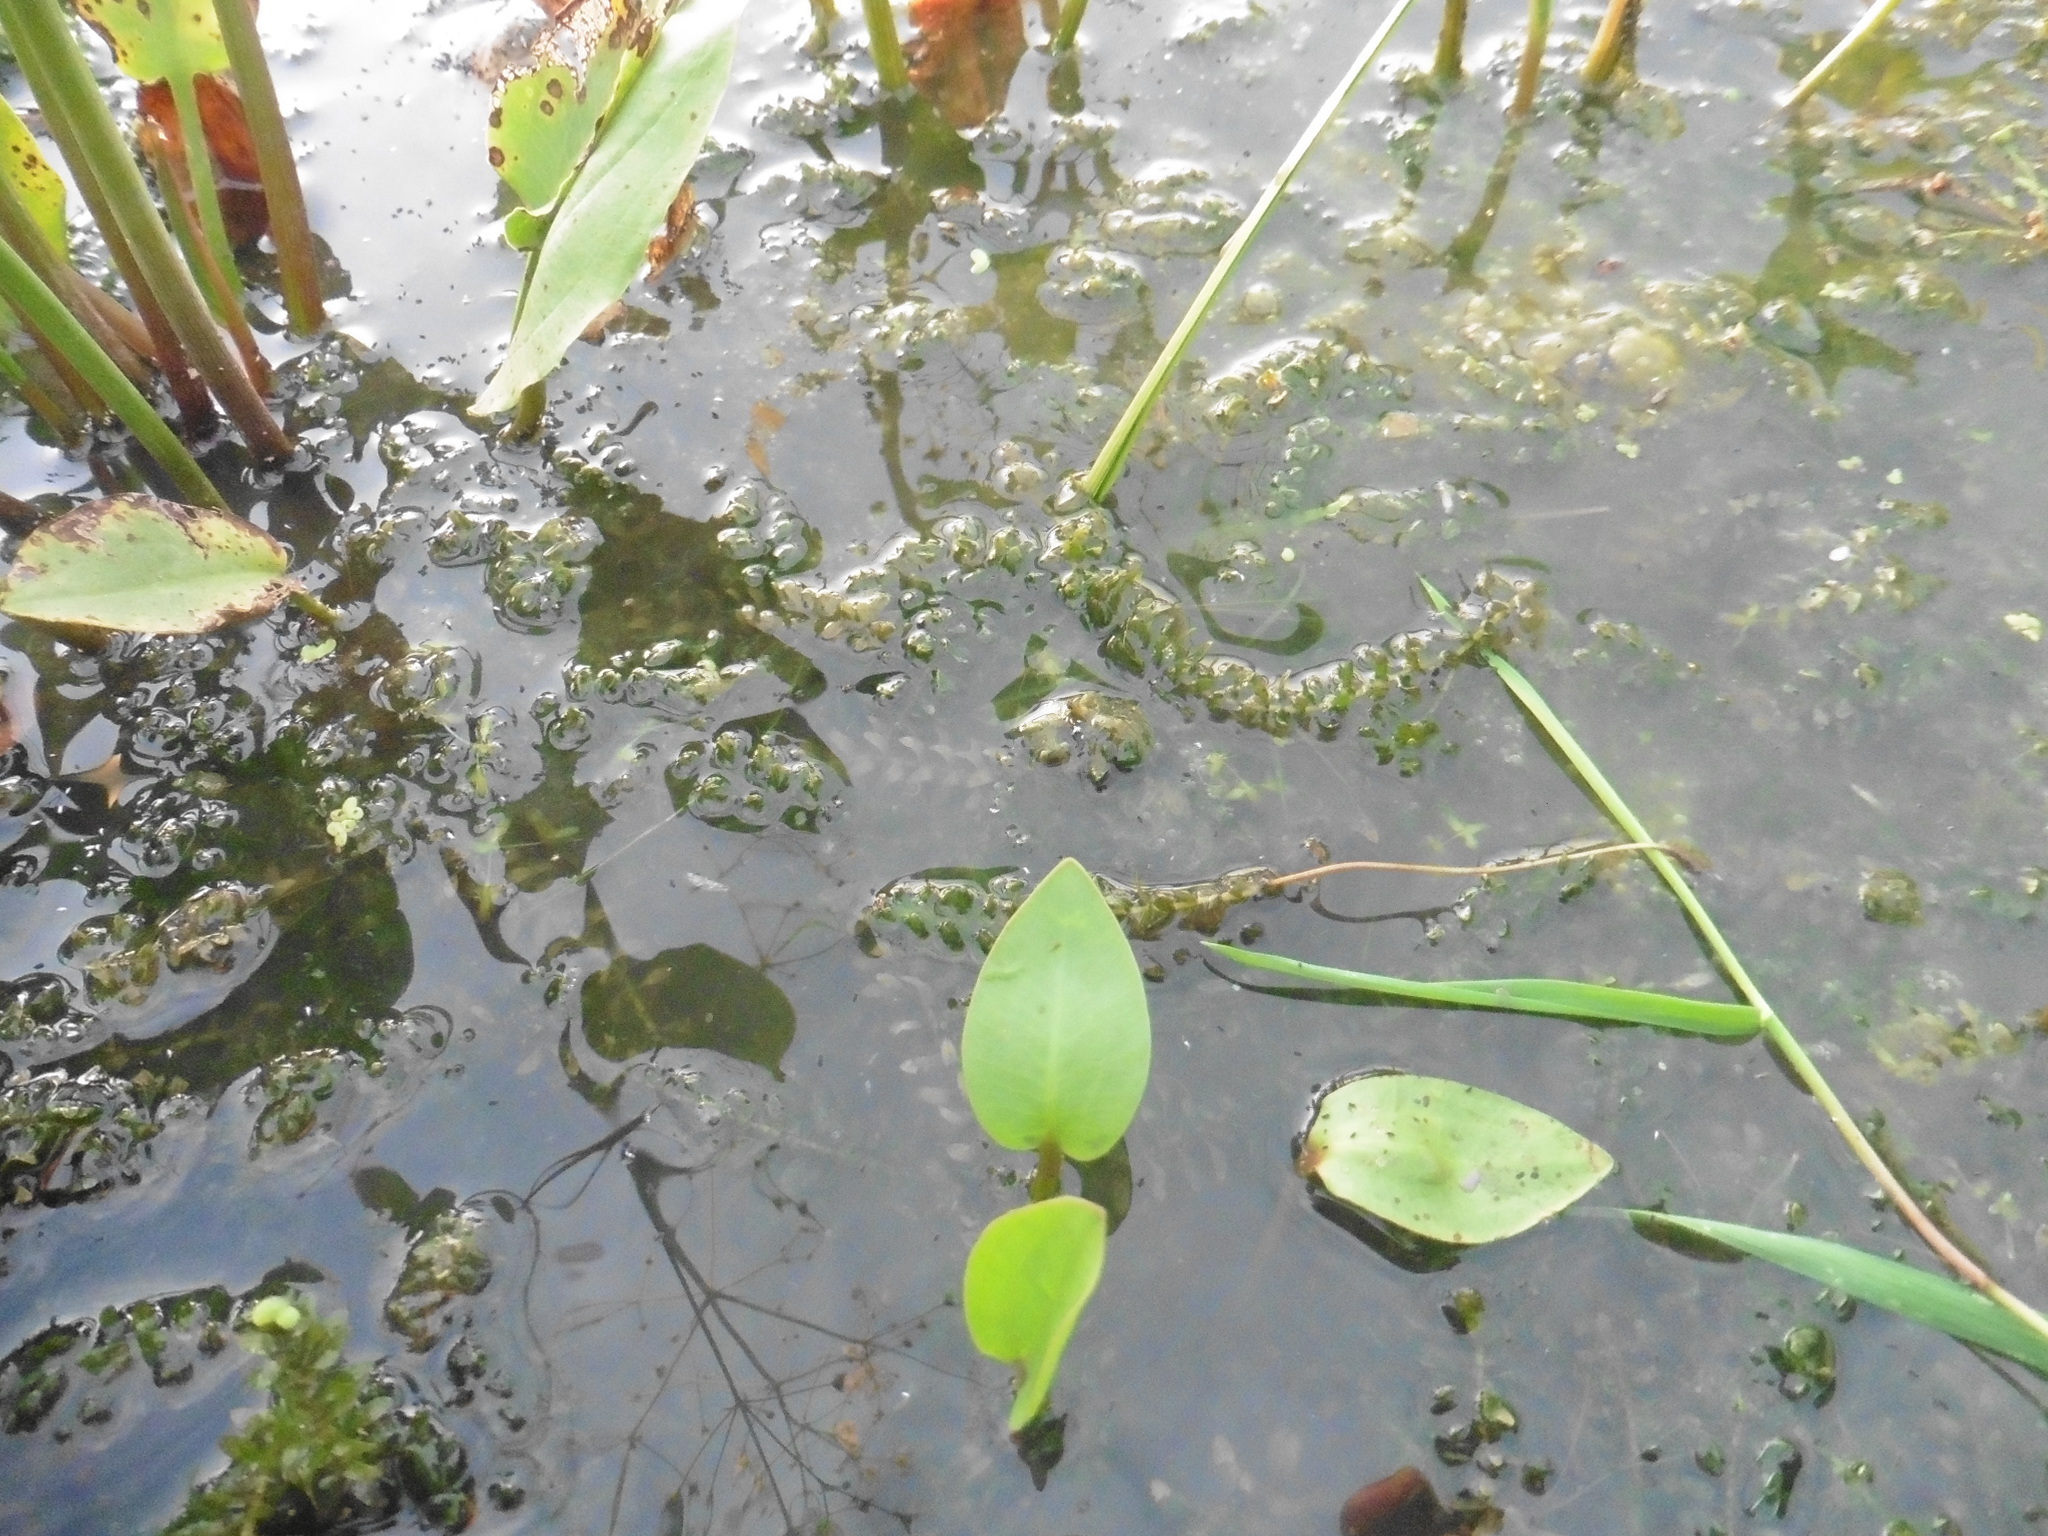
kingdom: Plantae
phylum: Tracheophyta
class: Liliopsida
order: Alismatales
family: Hydrocharitaceae
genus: Elodea
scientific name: Elodea canadensis
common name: Canadian waterweed
